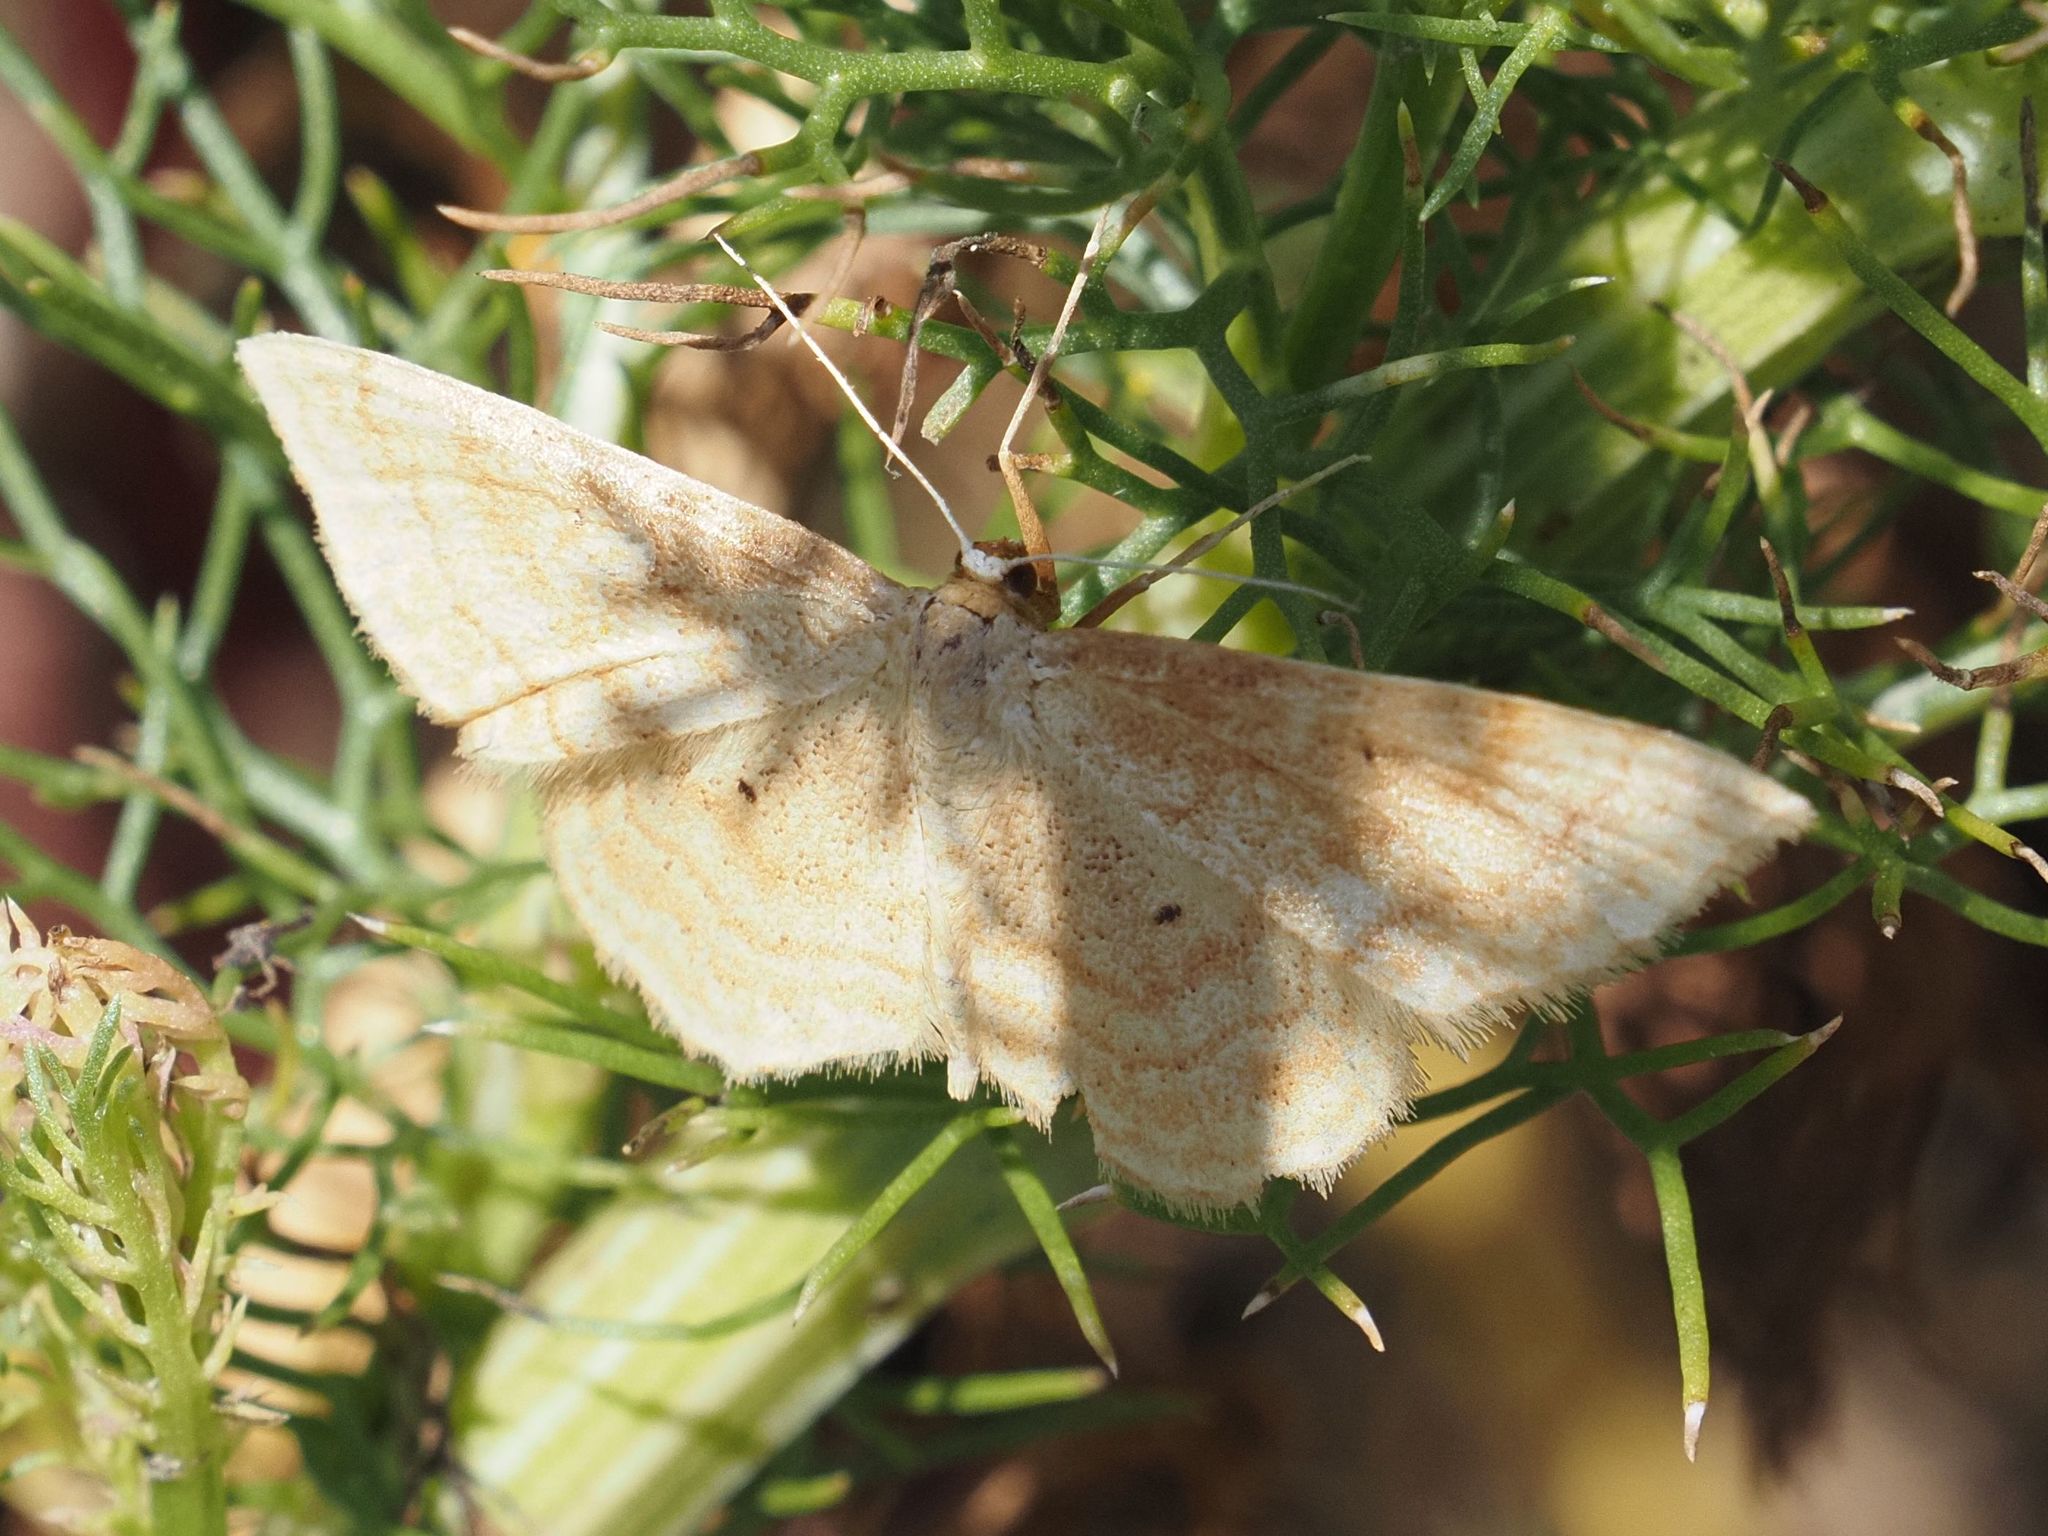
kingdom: Animalia
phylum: Arthropoda
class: Insecta
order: Lepidoptera
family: Geometridae
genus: Idaea
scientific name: Idaea rufaria
